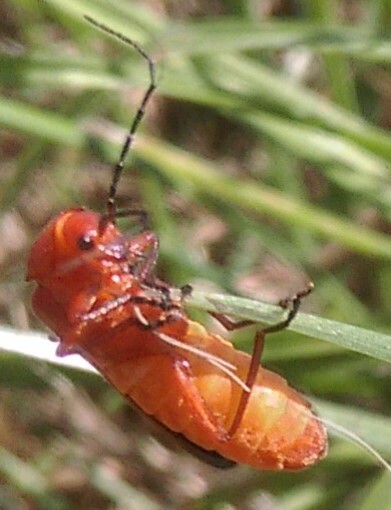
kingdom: Animalia
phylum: Arthropoda
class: Insecta
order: Coleoptera
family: Cantharidae
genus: Rhagonycha
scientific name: Rhagonycha fulva
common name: Common red soldier beetle
